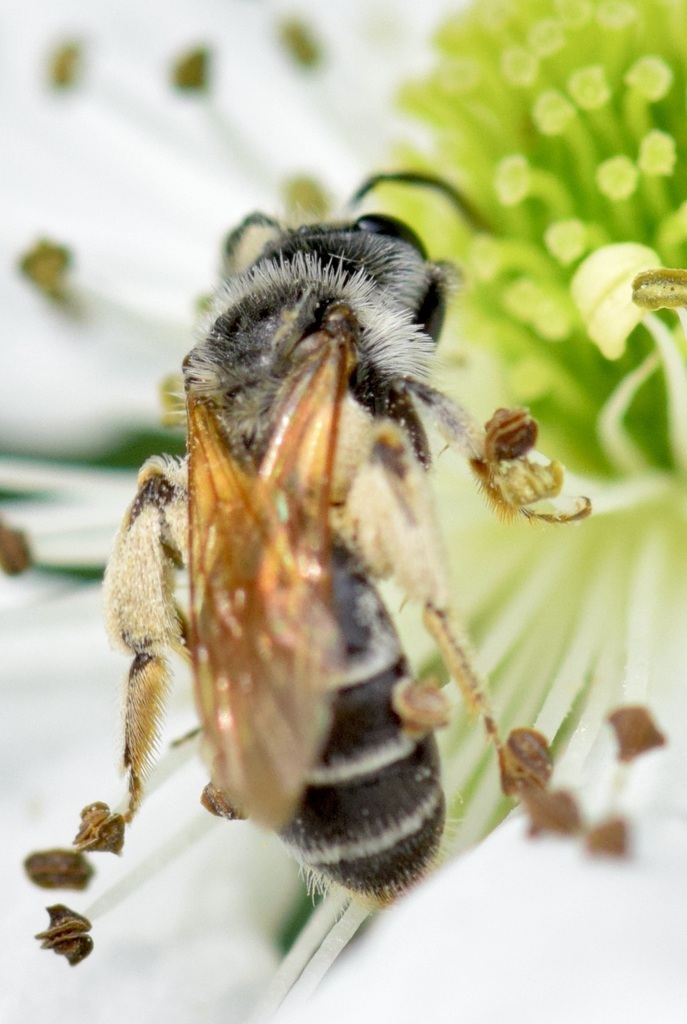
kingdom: Animalia
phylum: Arthropoda
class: Insecta
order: Hymenoptera
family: Andrenidae
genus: Andrena
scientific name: Andrena nasonii
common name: Nason's mining bee
